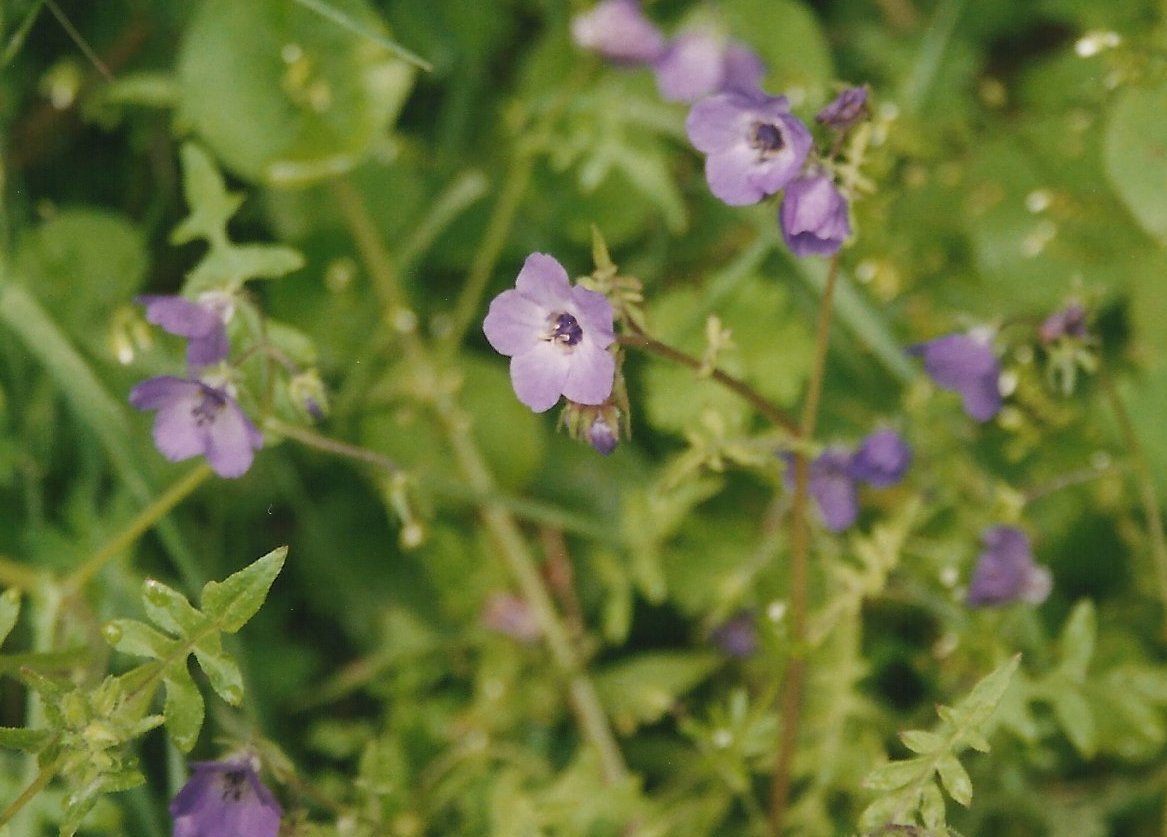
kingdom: Plantae
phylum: Tracheophyta
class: Magnoliopsida
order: Boraginales
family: Hydrophyllaceae
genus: Pholistoma
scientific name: Pholistoma auritum
